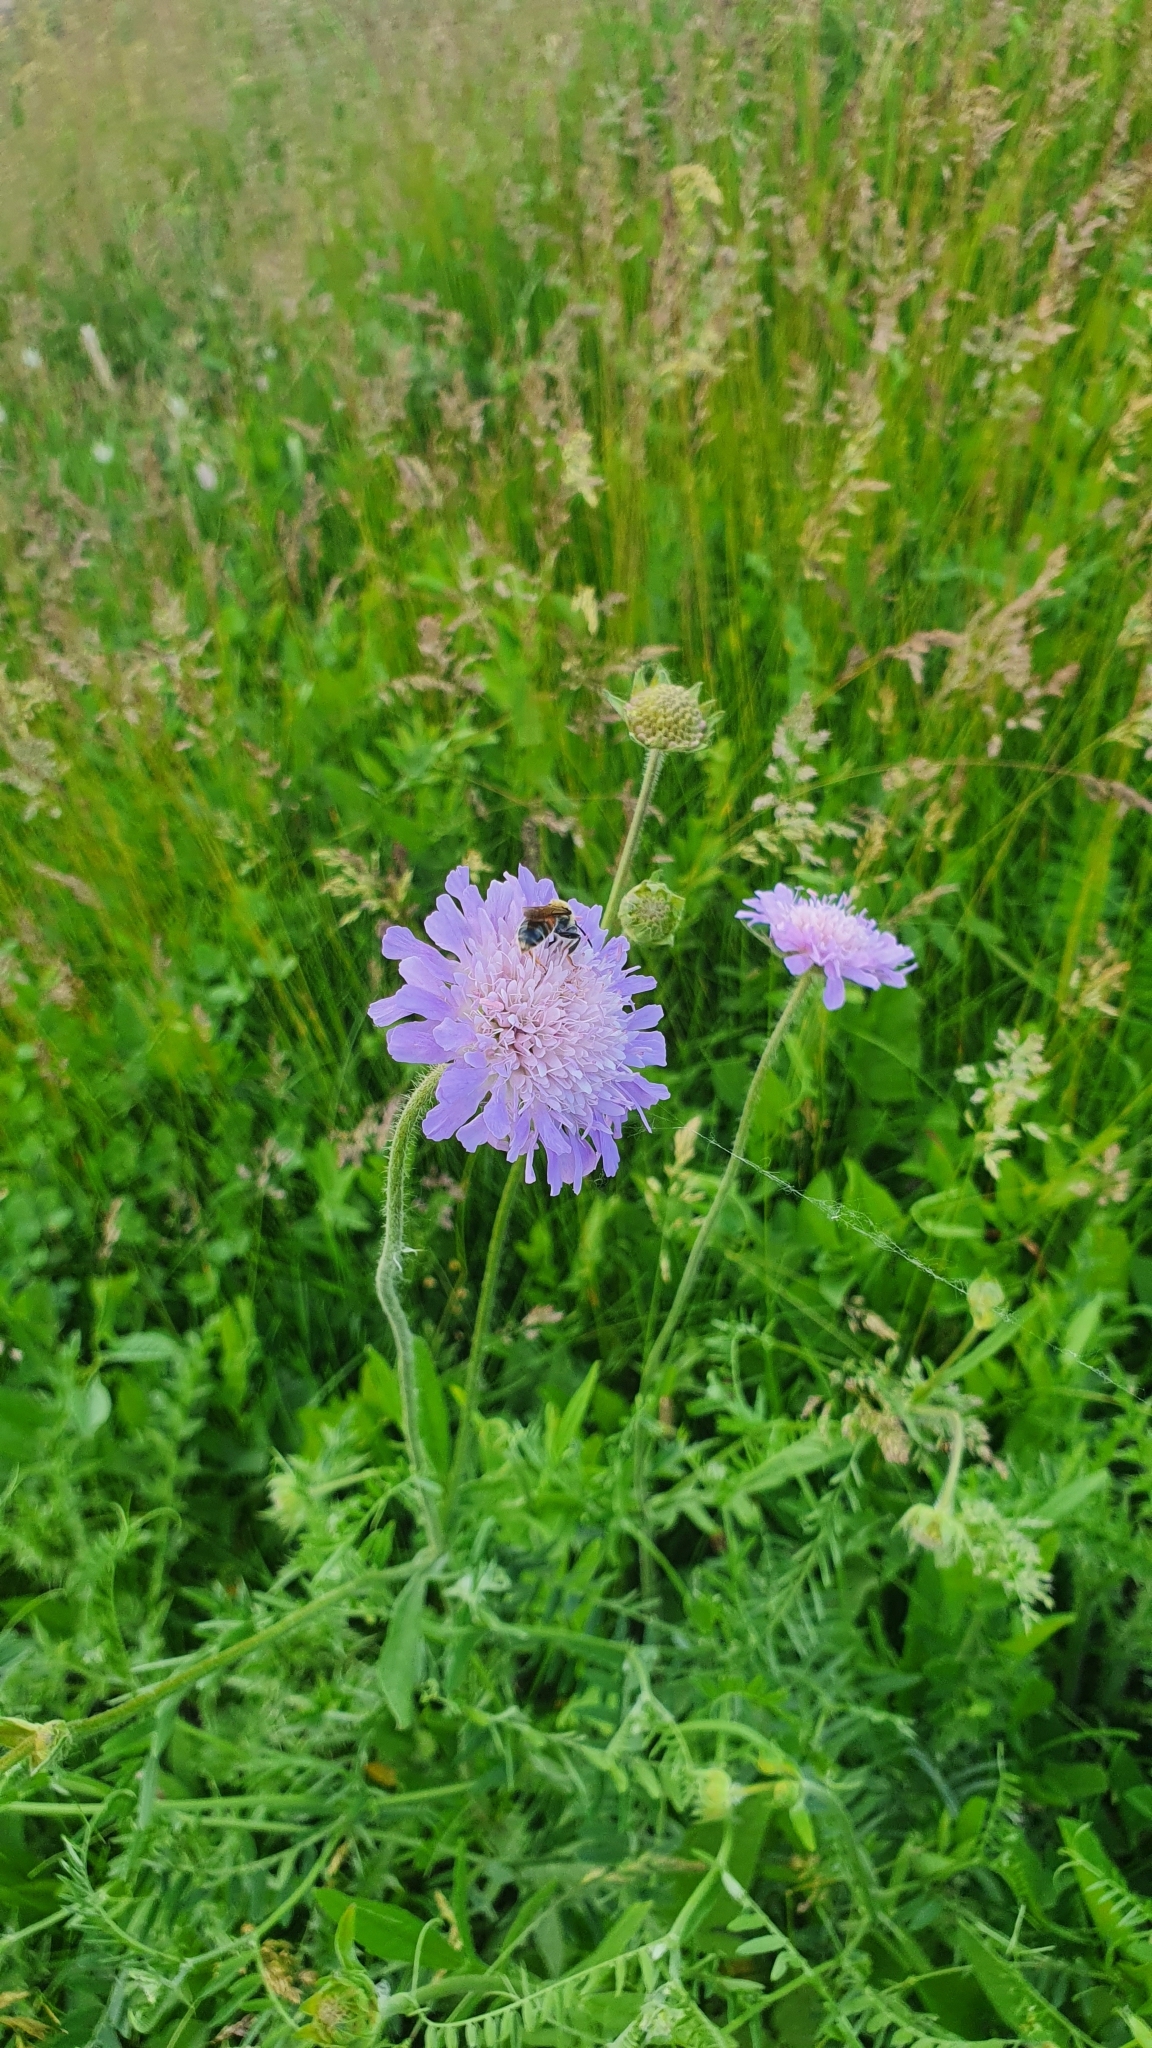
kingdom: Plantae
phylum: Tracheophyta
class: Magnoliopsida
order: Dipsacales
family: Caprifoliaceae
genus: Knautia
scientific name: Knautia arvensis
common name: Field scabiosa
